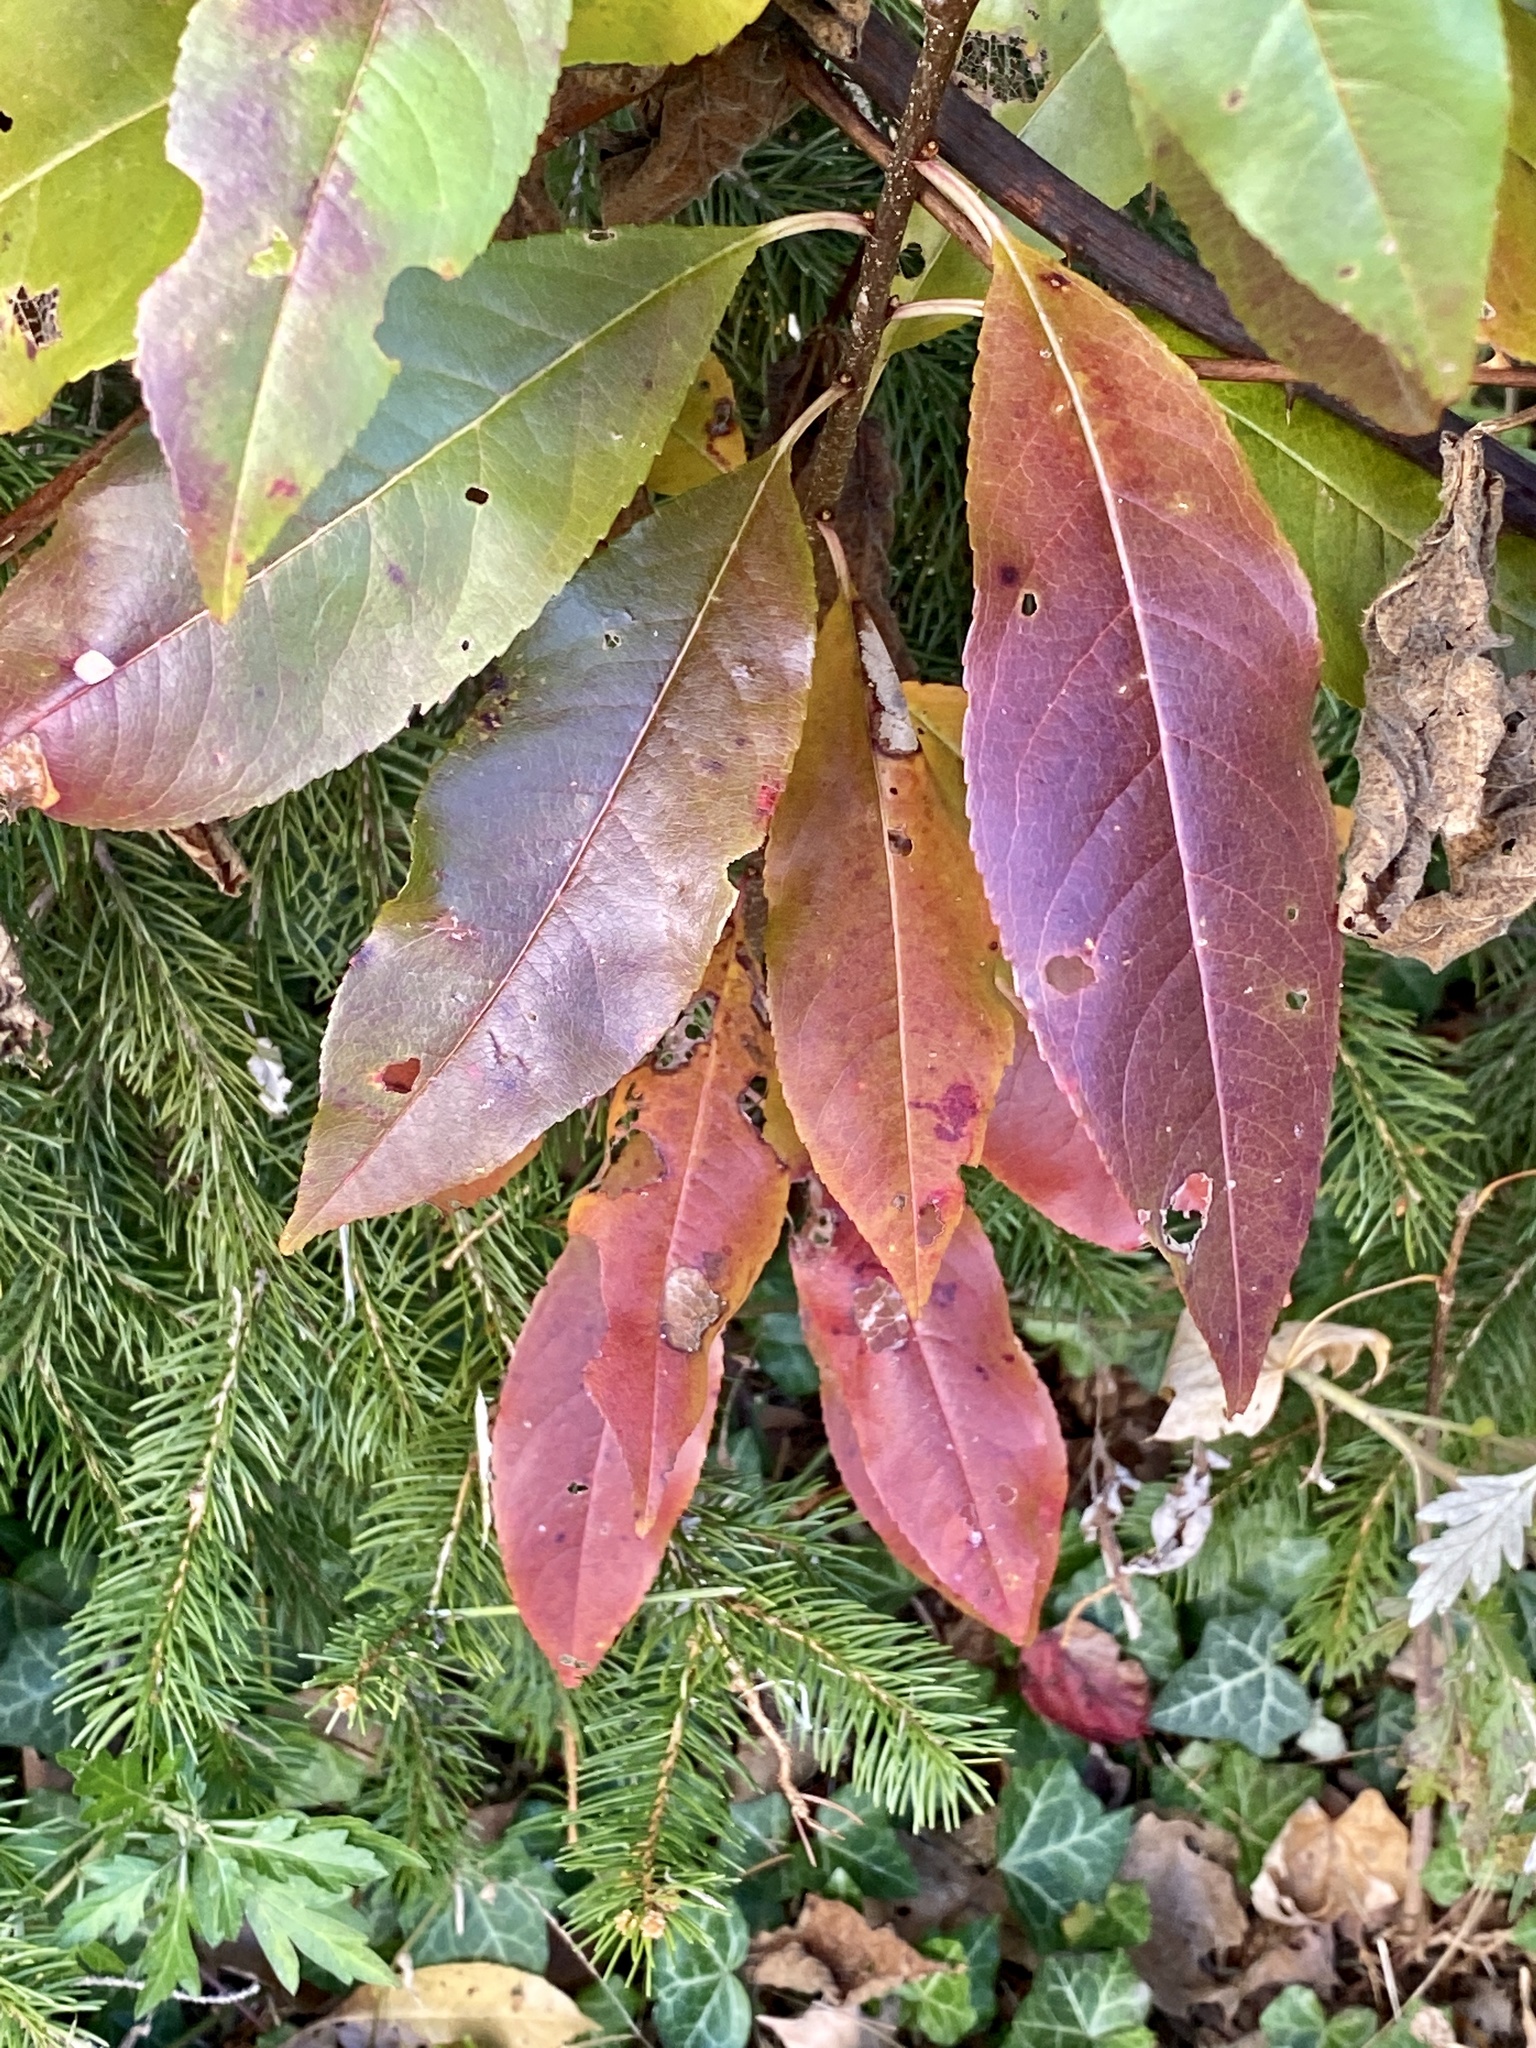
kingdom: Plantae
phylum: Tracheophyta
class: Magnoliopsida
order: Rosales
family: Rosaceae
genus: Prunus
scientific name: Prunus serotina
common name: Black cherry
